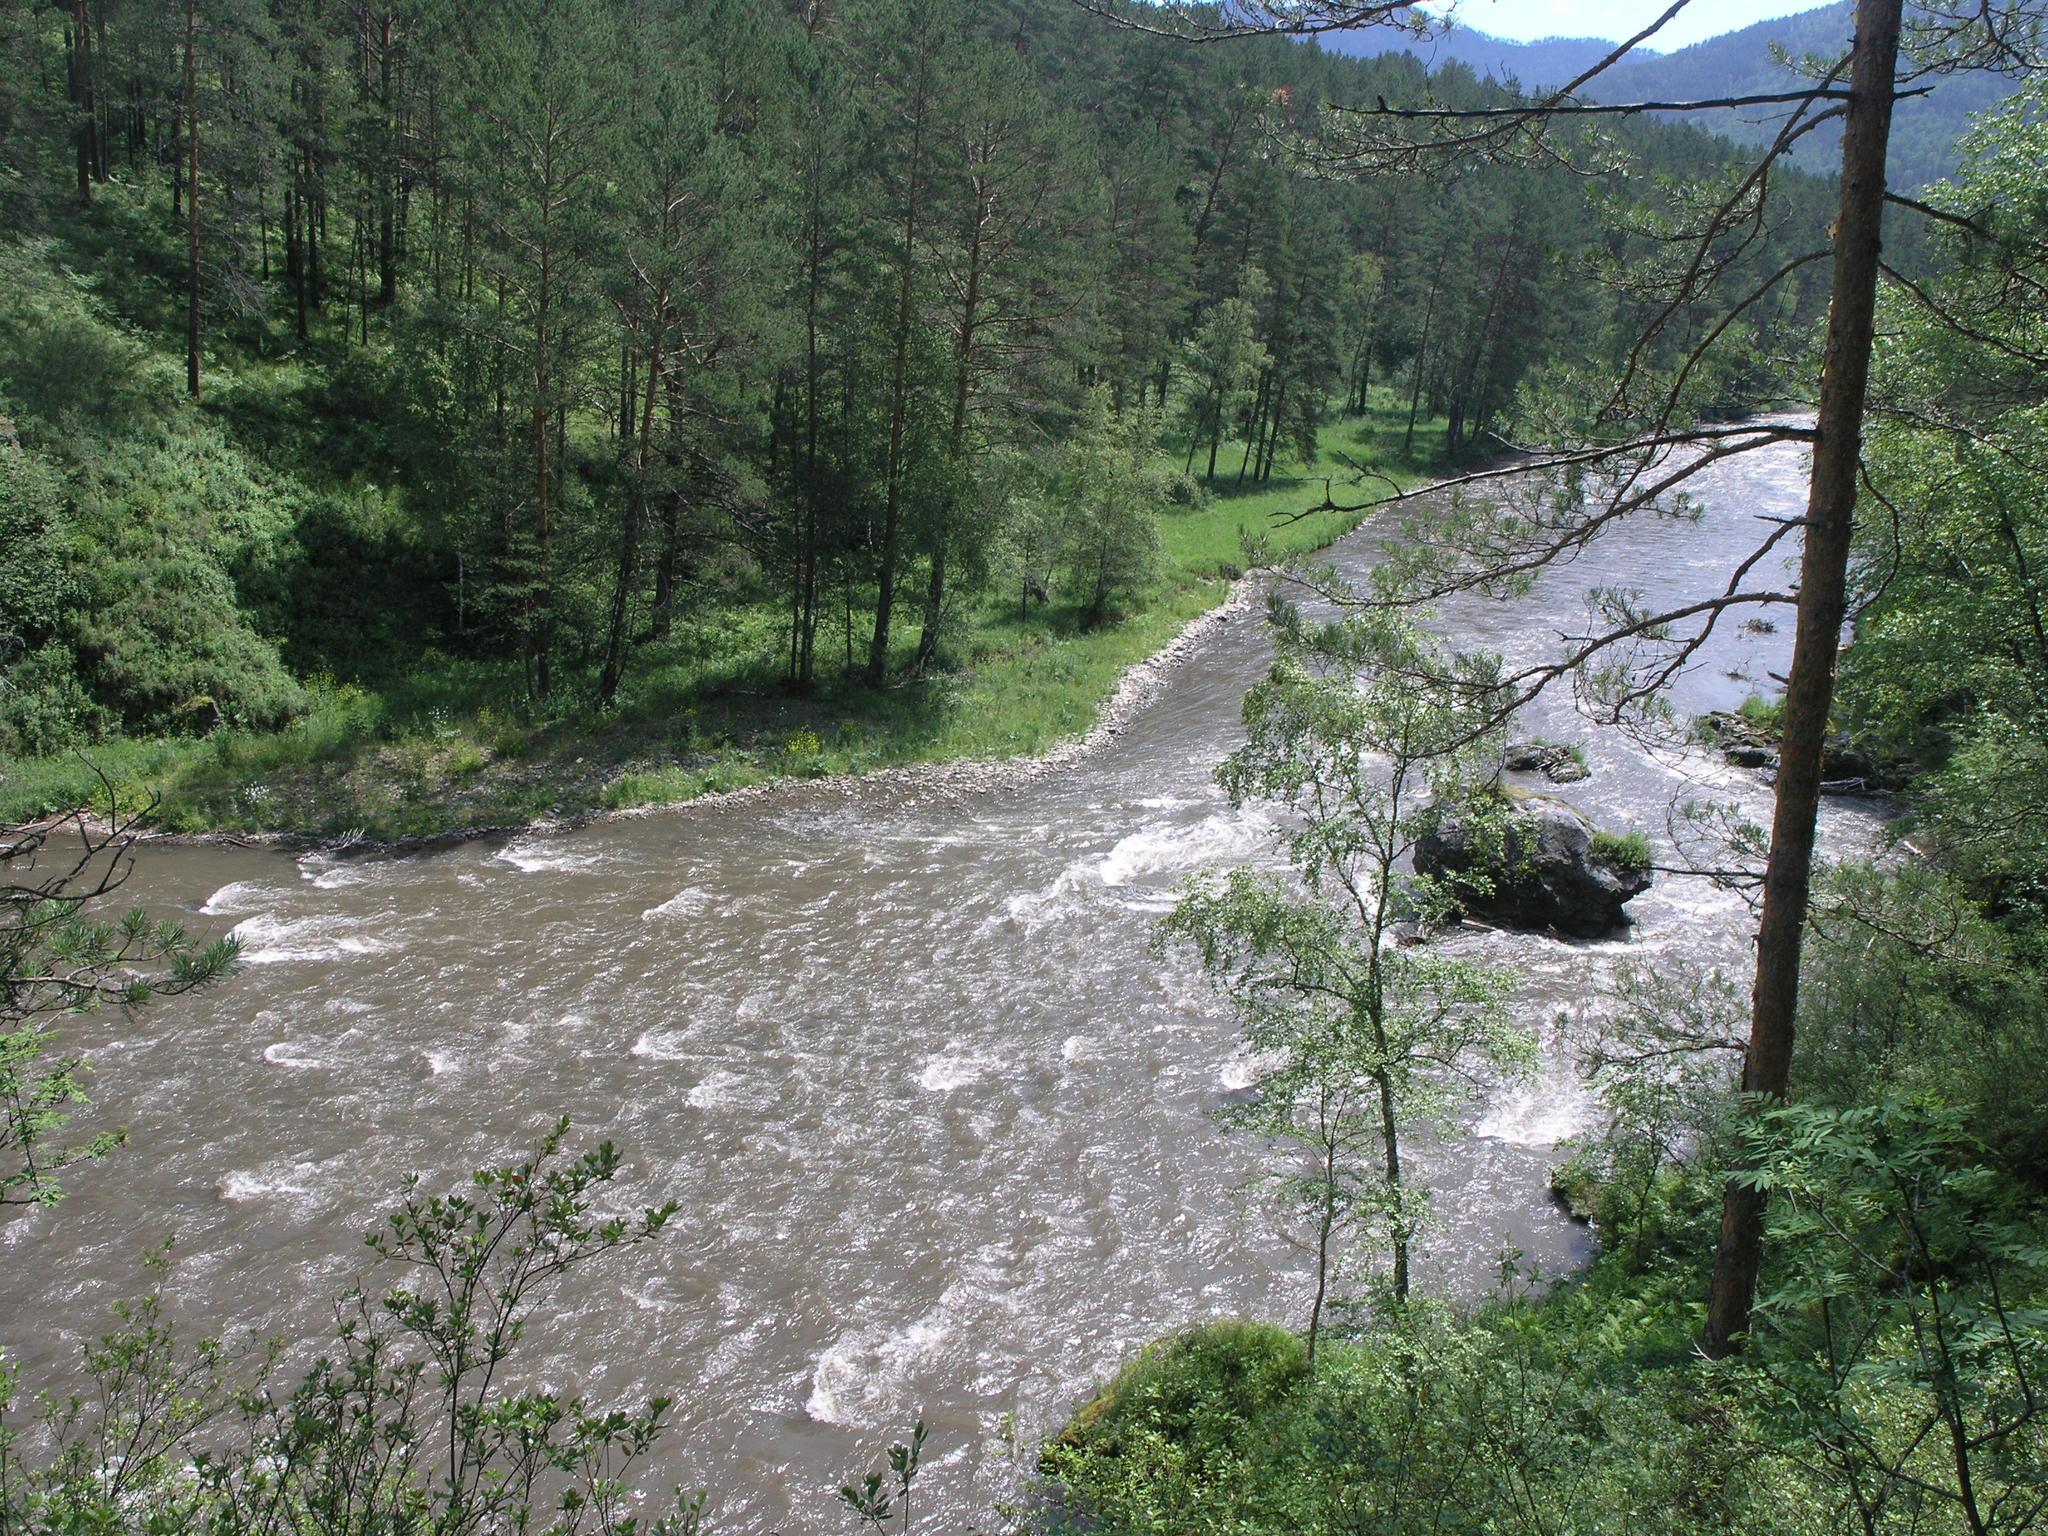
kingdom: Plantae
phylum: Tracheophyta
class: Pinopsida
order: Pinales
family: Pinaceae
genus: Pinus
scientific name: Pinus sylvestris
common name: Scots pine
